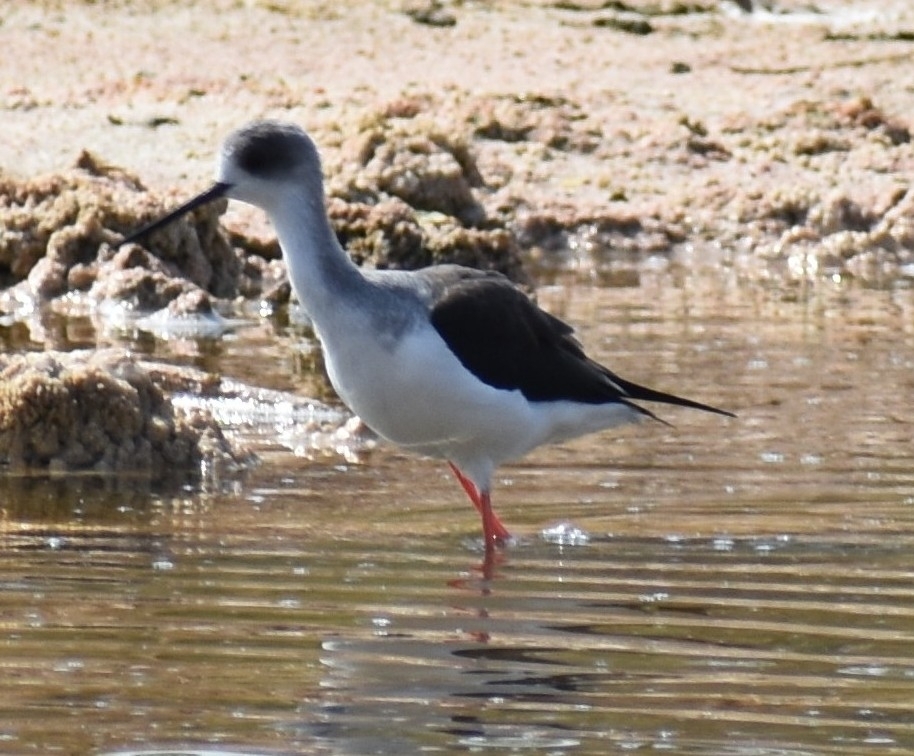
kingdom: Animalia
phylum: Chordata
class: Aves
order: Charadriiformes
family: Recurvirostridae
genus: Himantopus
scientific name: Himantopus himantopus
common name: Black-winged stilt
